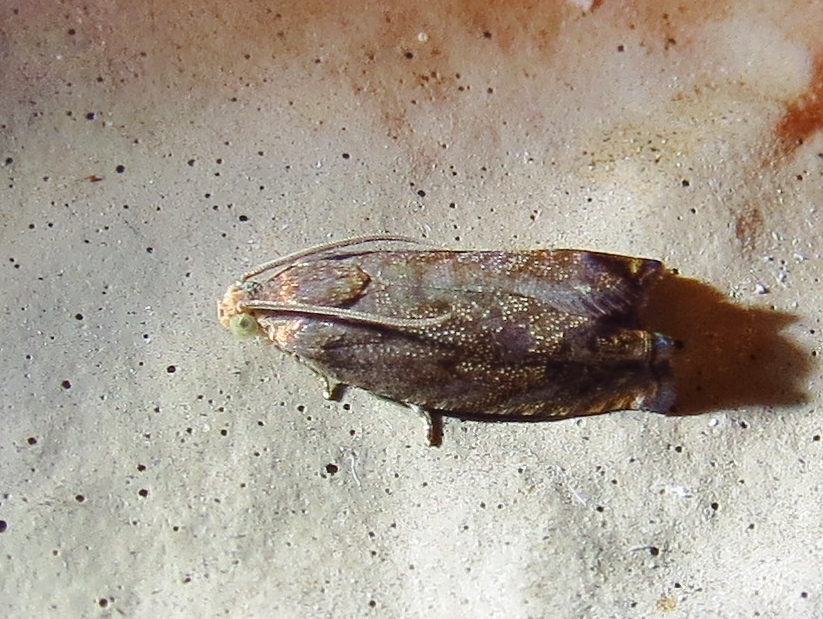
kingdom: Animalia
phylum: Arthropoda
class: Insecta
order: Lepidoptera
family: Tortricidae
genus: Cydia
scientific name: Cydia latiferreana
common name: Filbertworm moth
